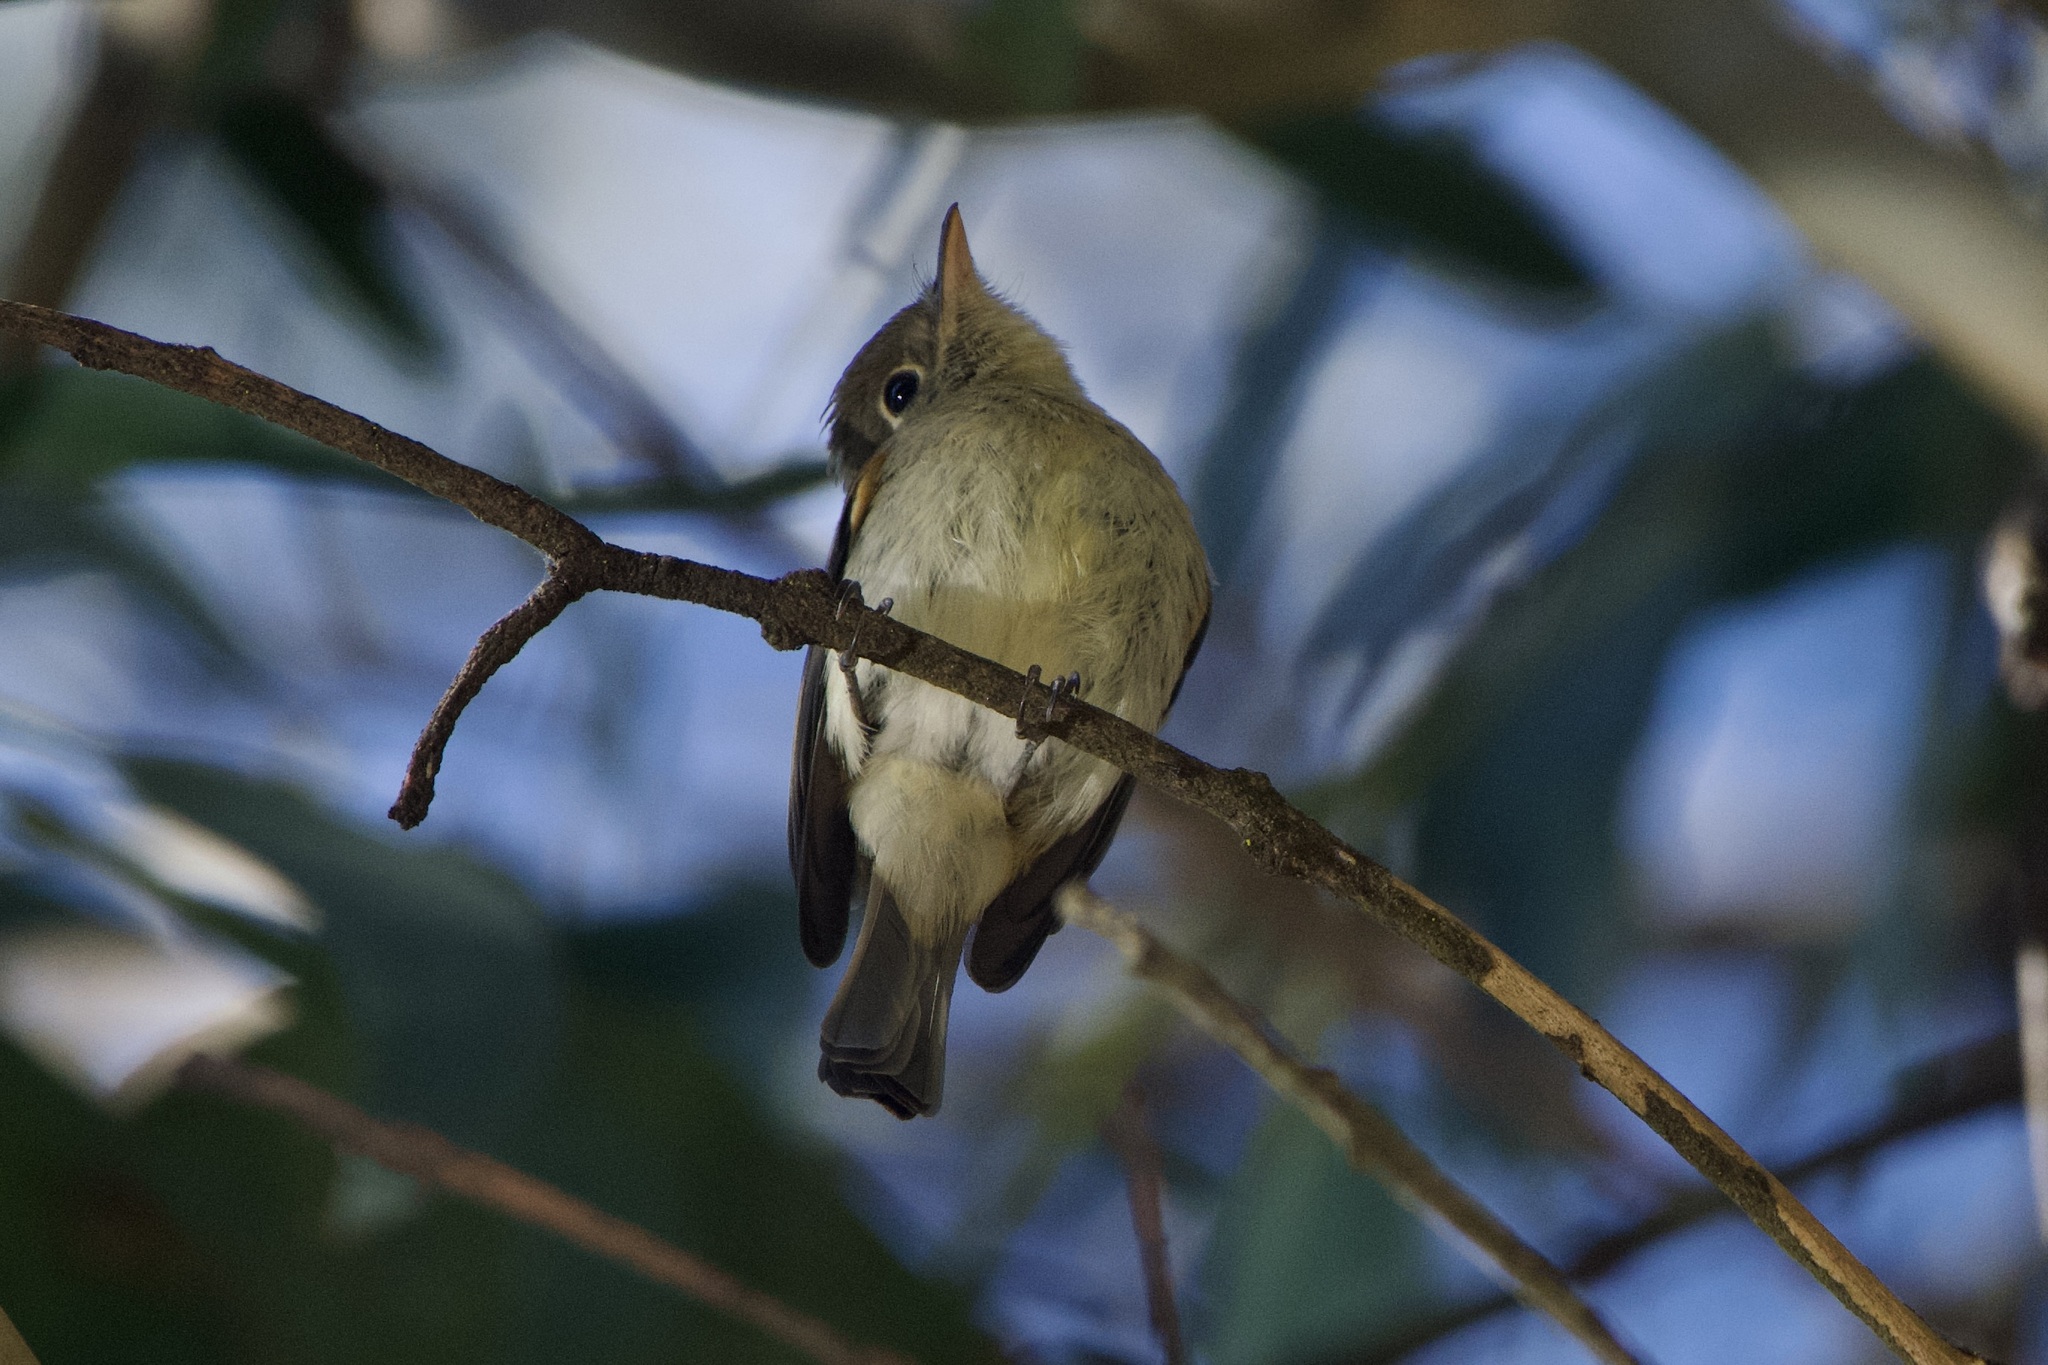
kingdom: Animalia
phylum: Chordata
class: Aves
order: Passeriformes
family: Tyrannidae
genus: Empidonax
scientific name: Empidonax difficilis
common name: Pacific-slope flycatcher
